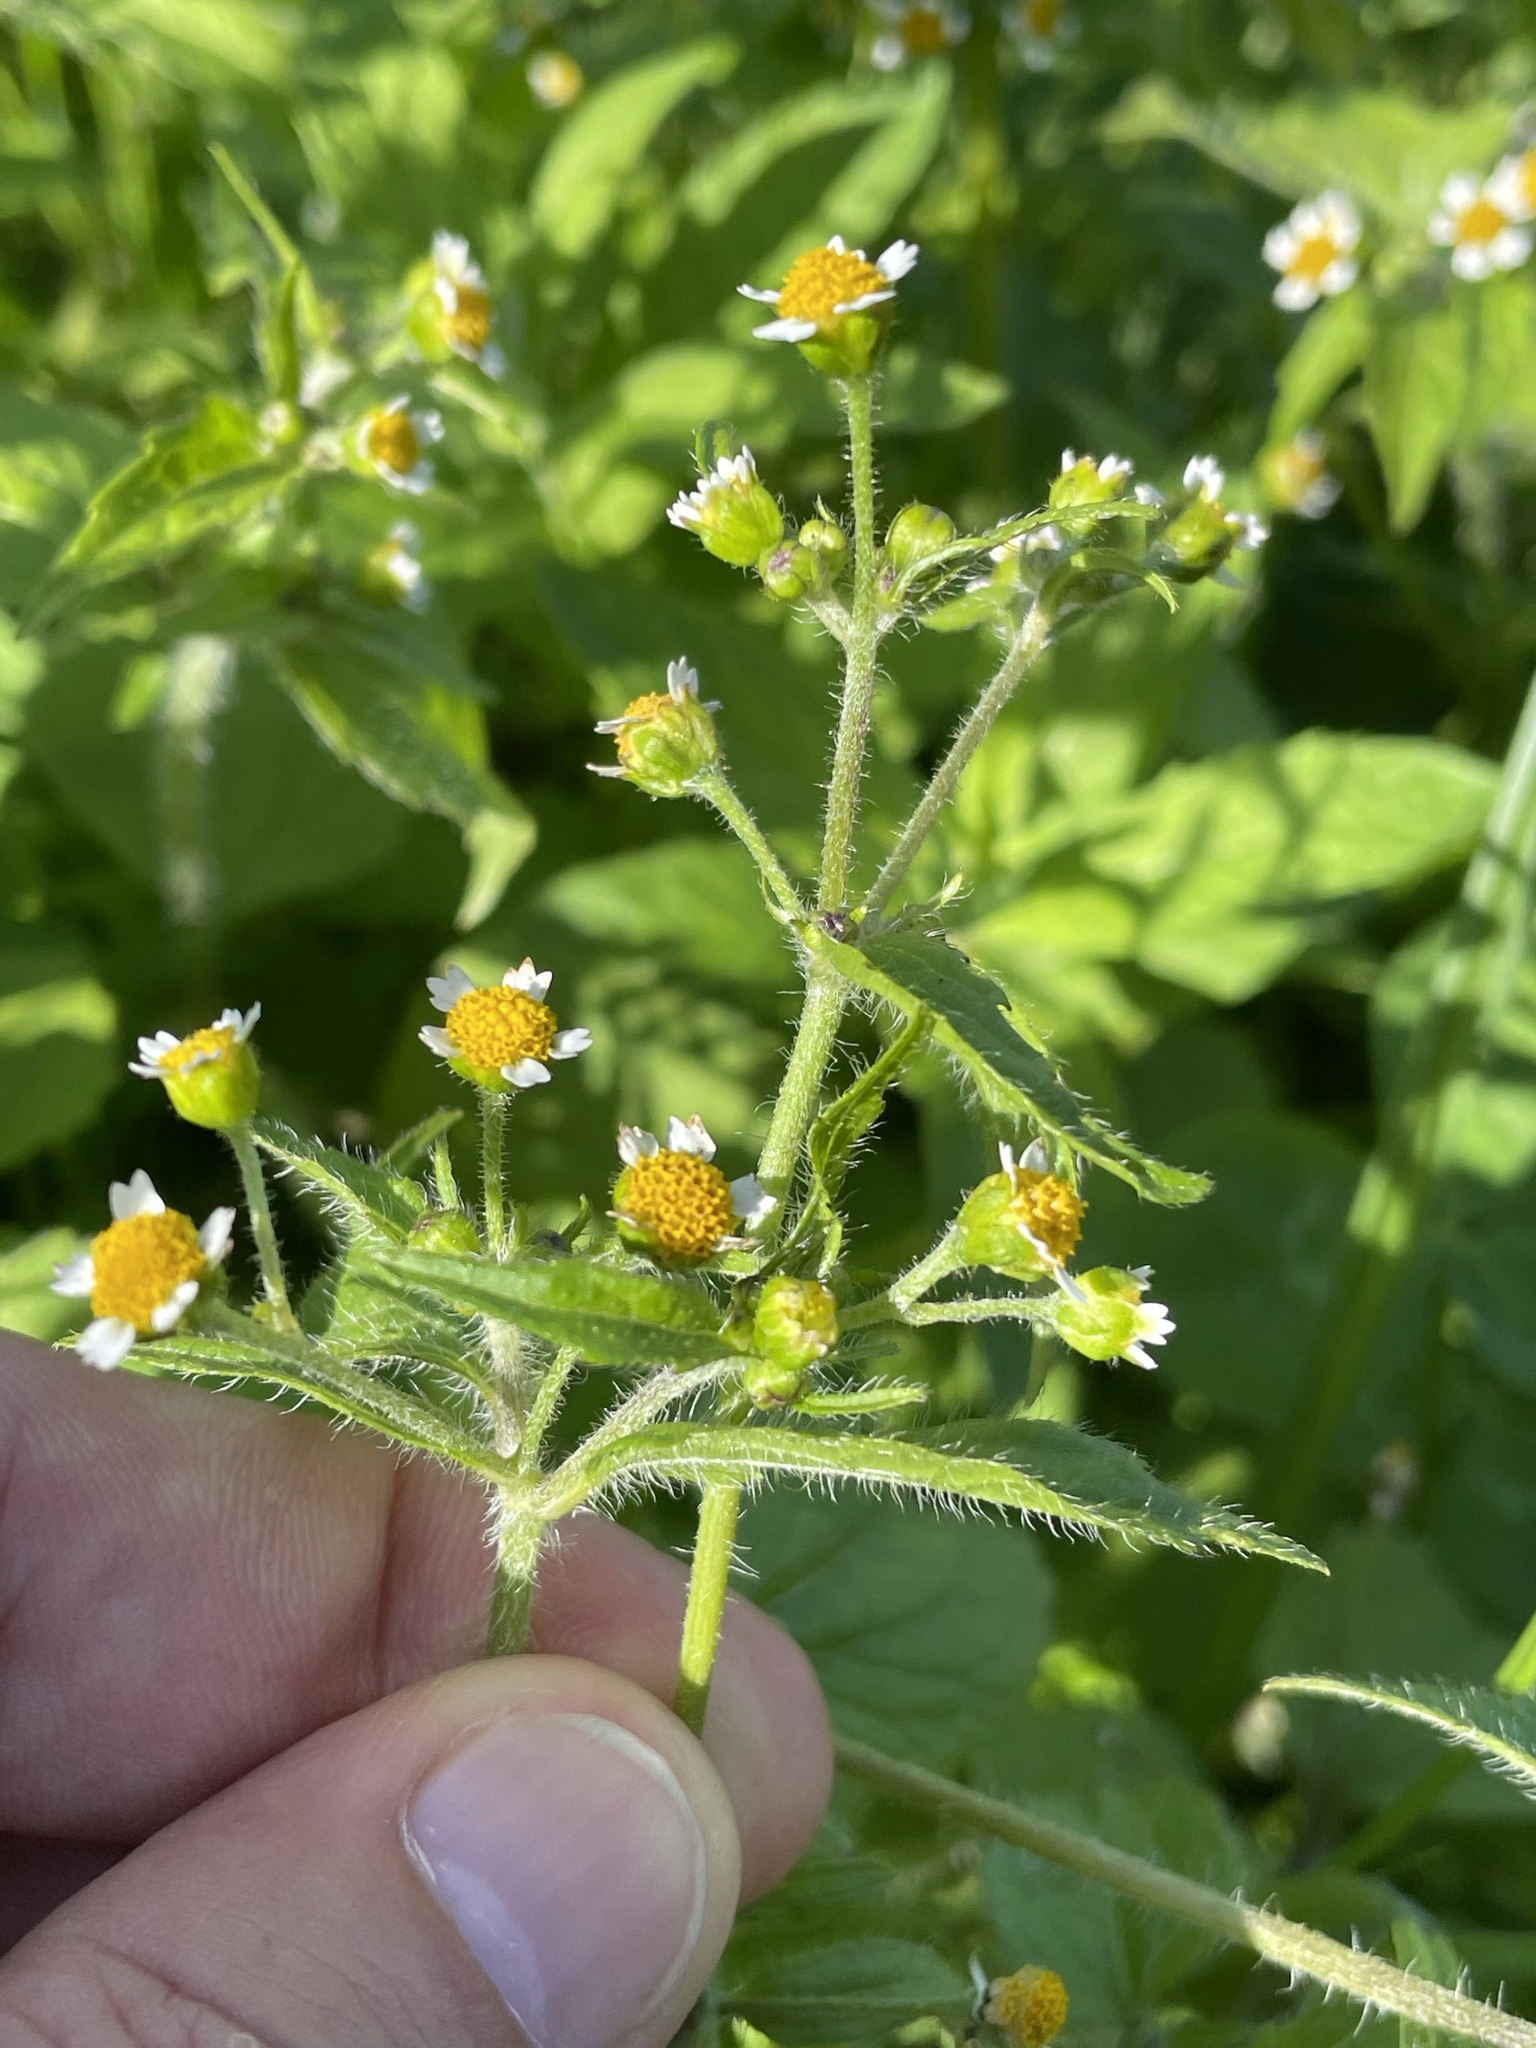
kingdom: Plantae
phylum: Tracheophyta
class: Magnoliopsida
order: Asterales
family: Asteraceae
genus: Galinsoga
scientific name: Galinsoga quadriradiata
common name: Shaggy soldier
